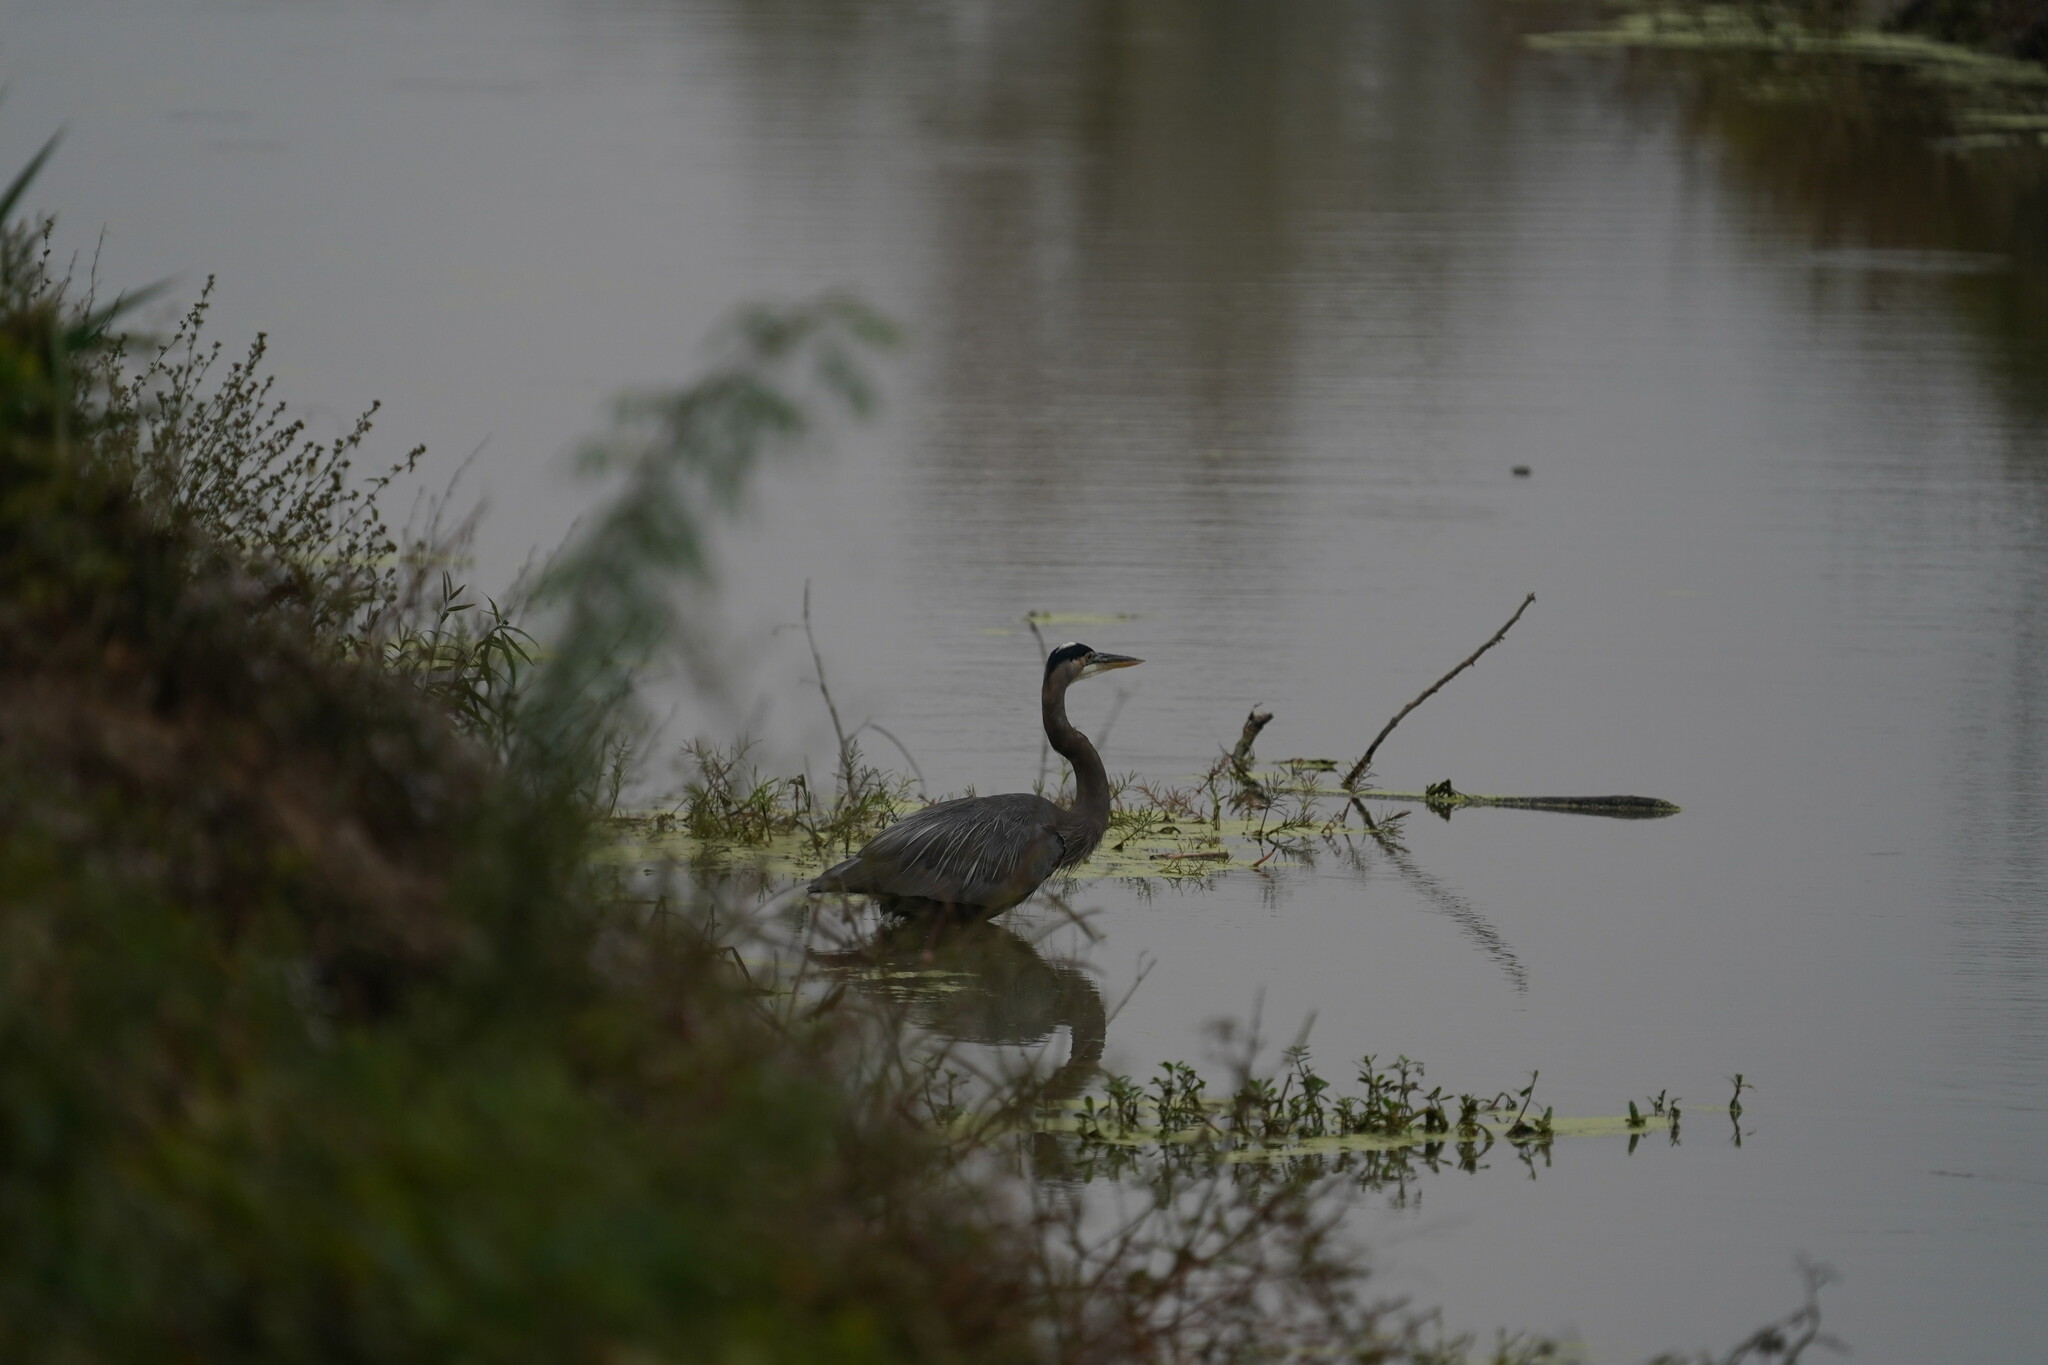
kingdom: Animalia
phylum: Chordata
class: Aves
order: Pelecaniformes
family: Ardeidae
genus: Ardea
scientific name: Ardea herodias
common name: Great blue heron
